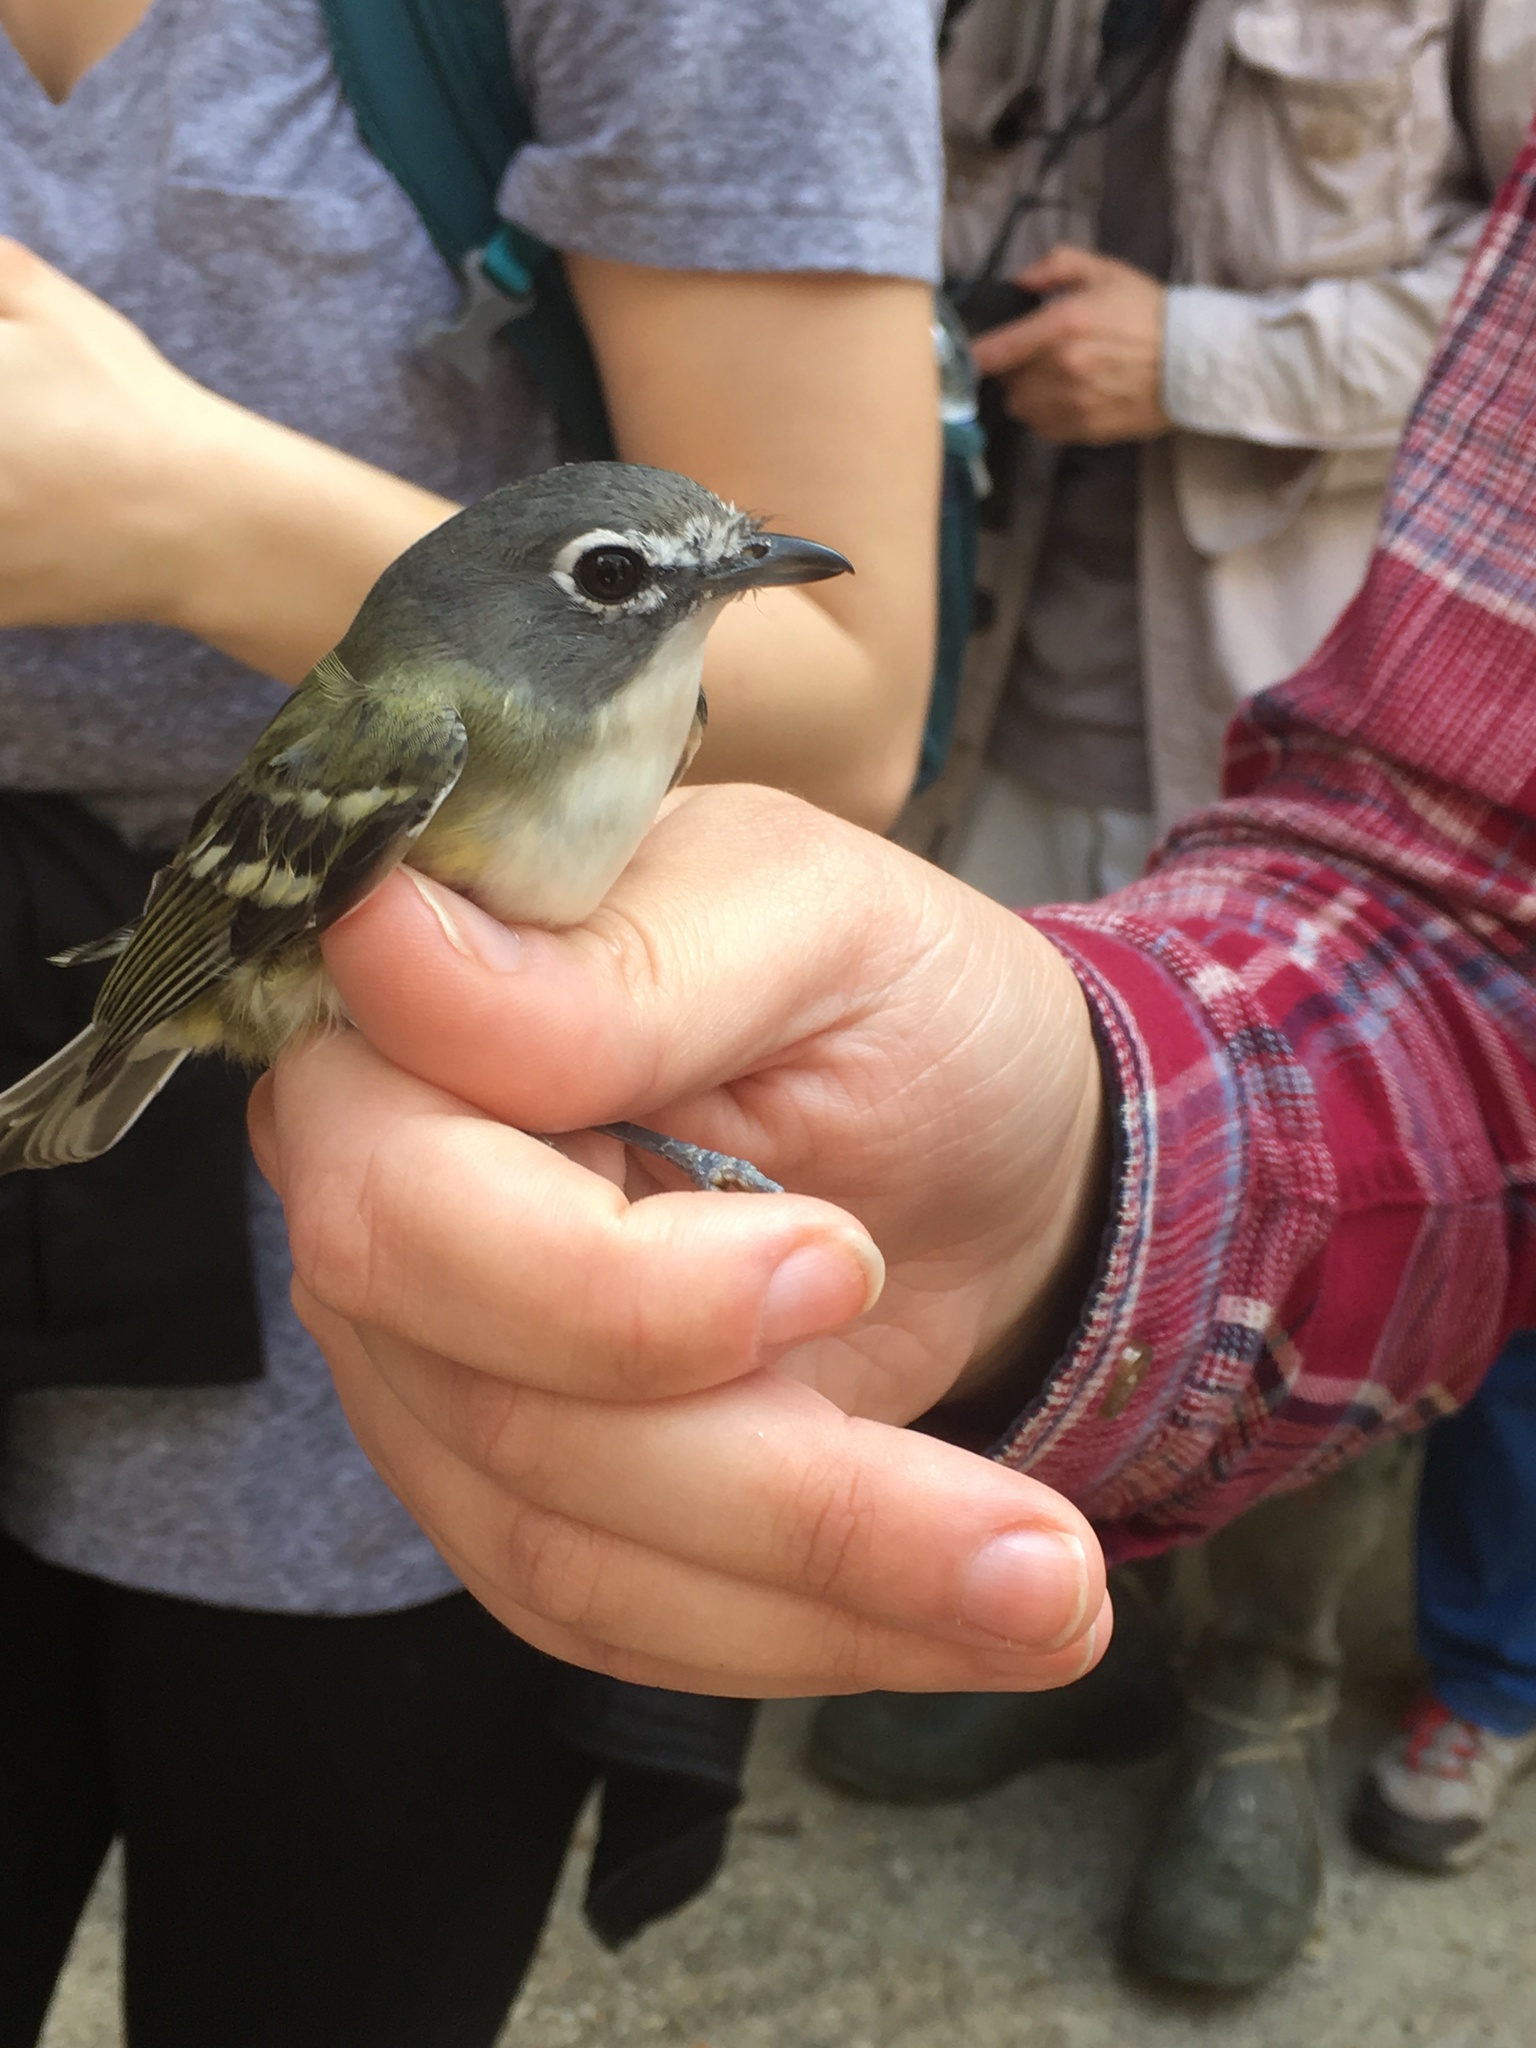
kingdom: Animalia
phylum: Chordata
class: Aves
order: Passeriformes
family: Vireonidae
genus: Vireo
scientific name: Vireo solitarius
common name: Blue-headed vireo
